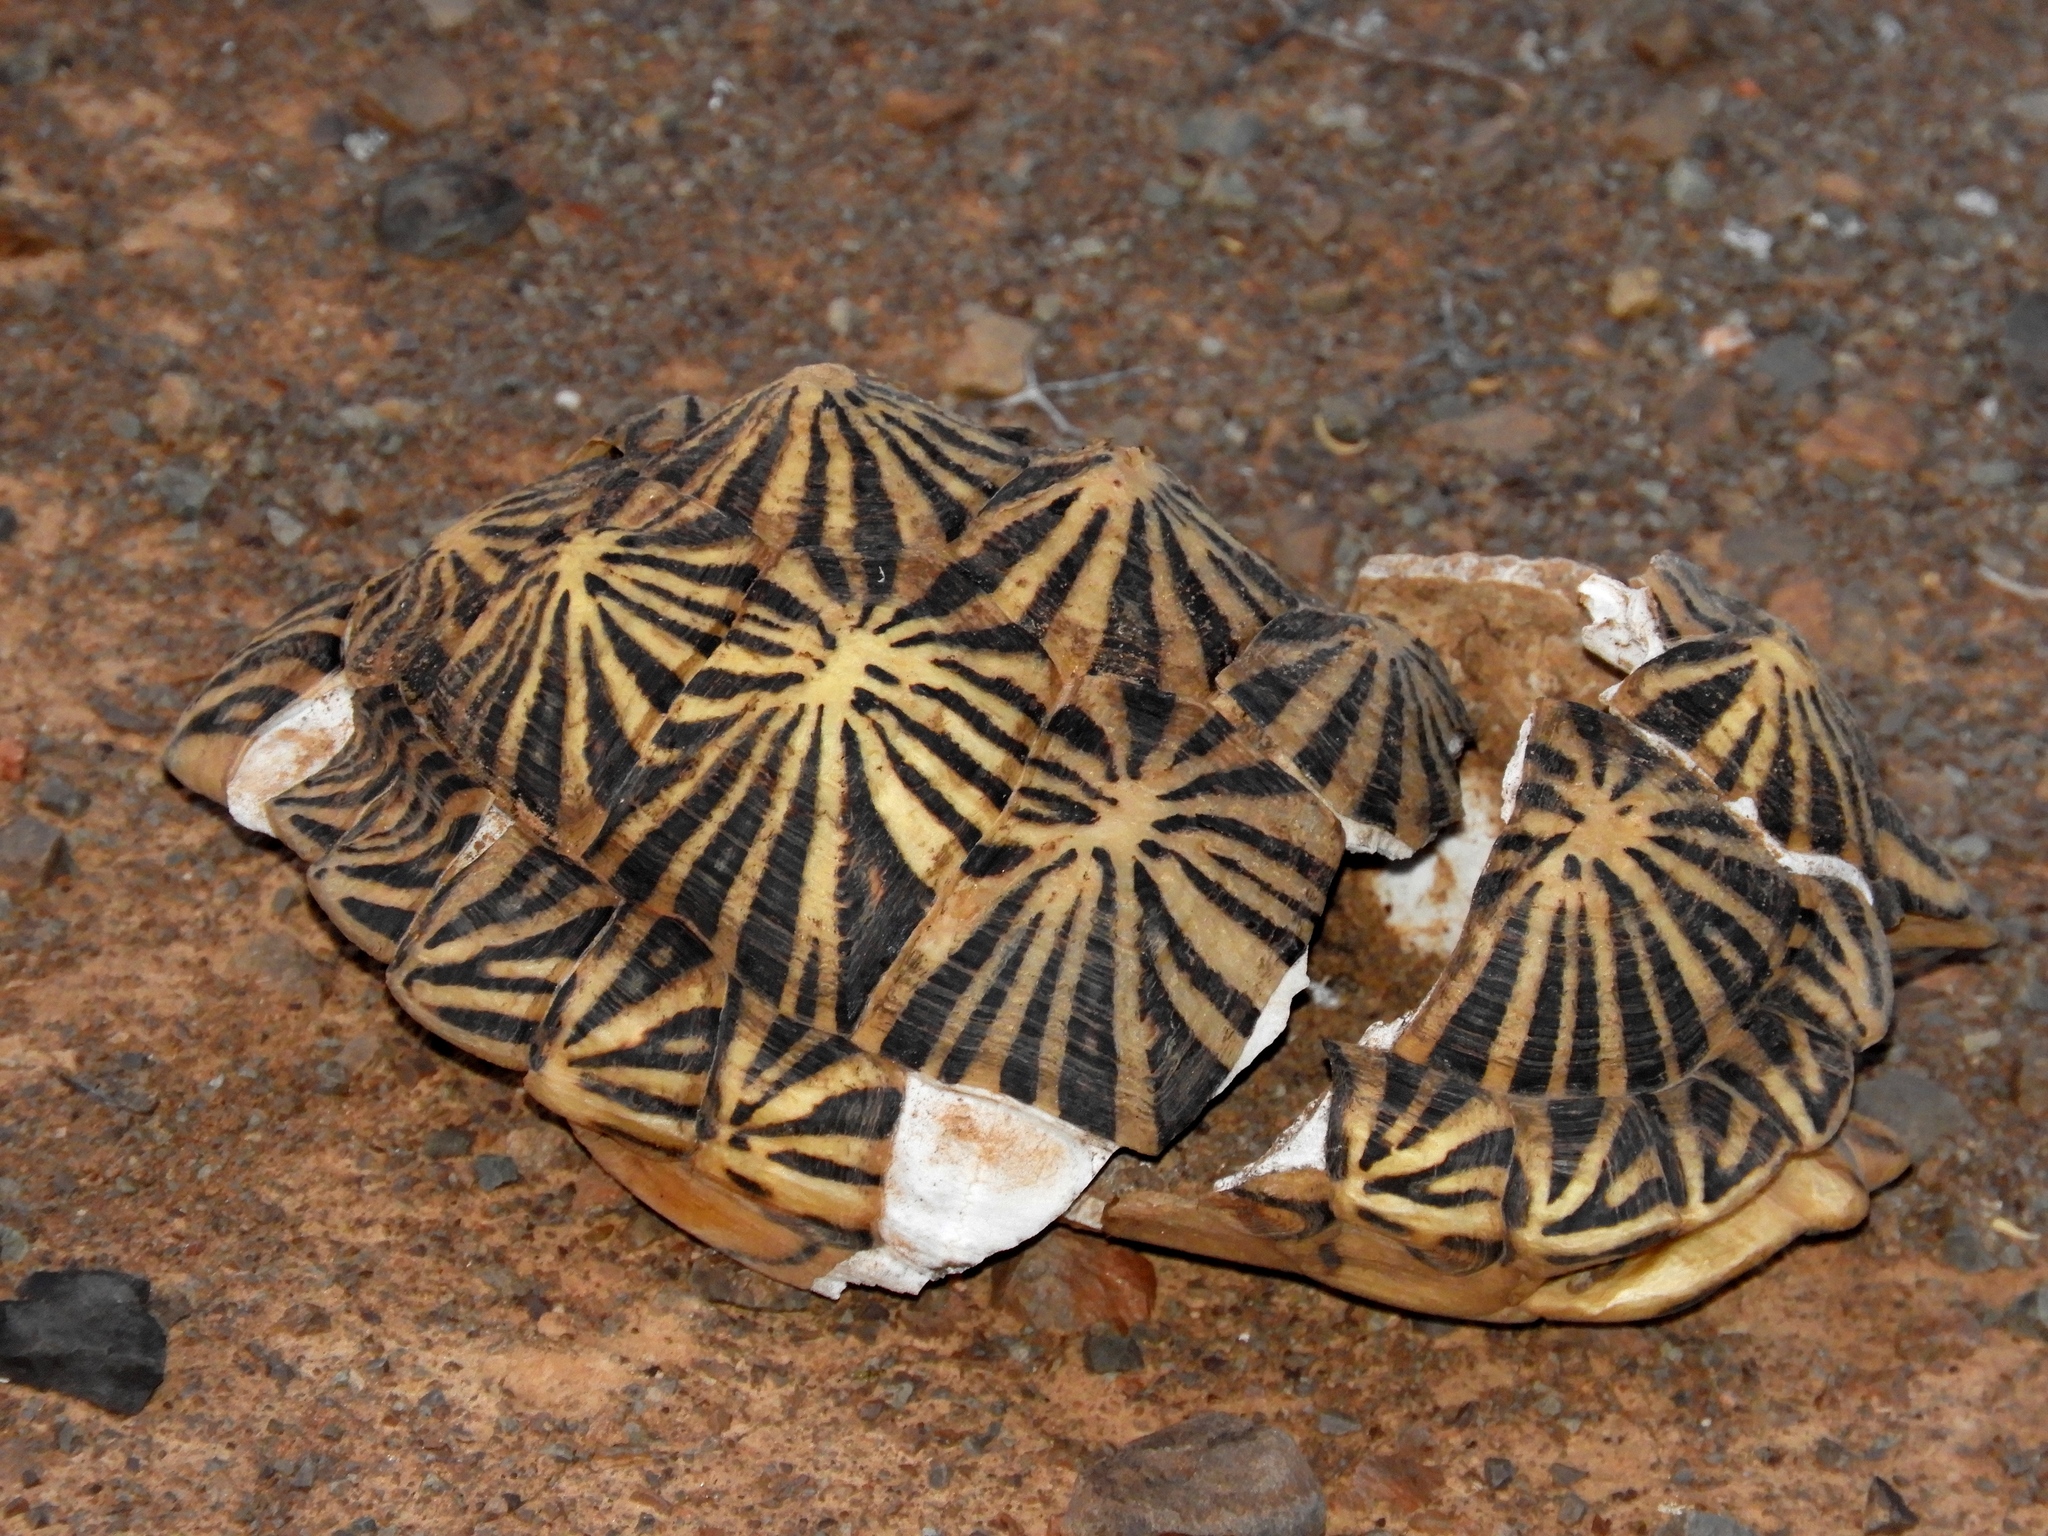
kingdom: Animalia
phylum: Chordata
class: Testudines
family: Testudinidae
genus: Psammobates
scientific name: Psammobates tentorius
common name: Tent tortoise
